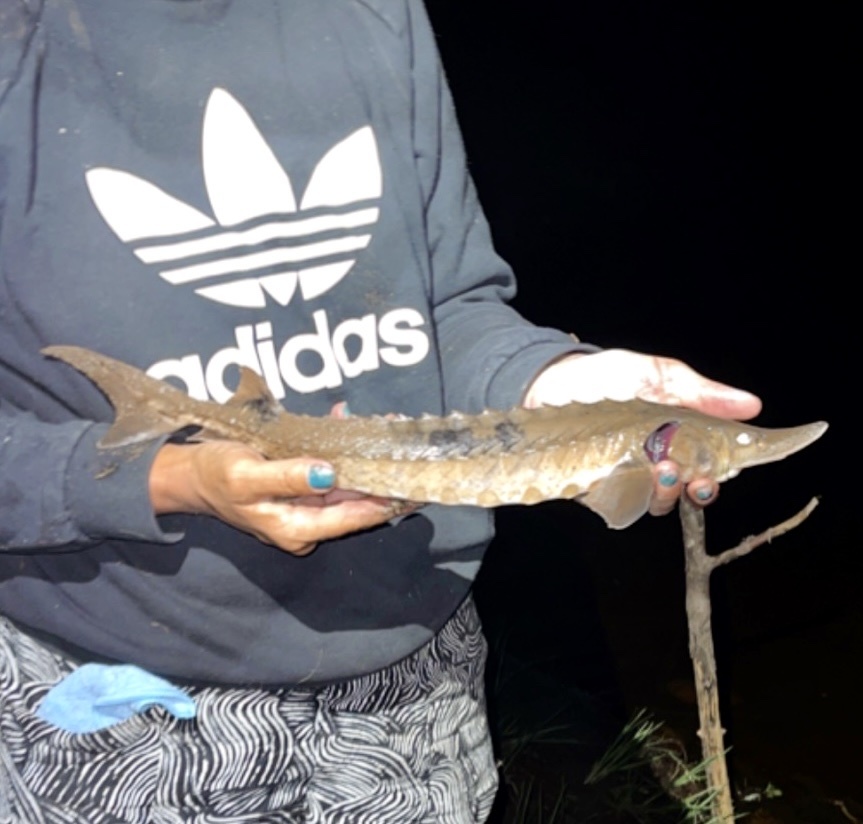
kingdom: Animalia
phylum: Chordata
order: Acipenseriformes
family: Acipenseridae
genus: Acipenser
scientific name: Acipenser fulvescens
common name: Lake sturgeon
